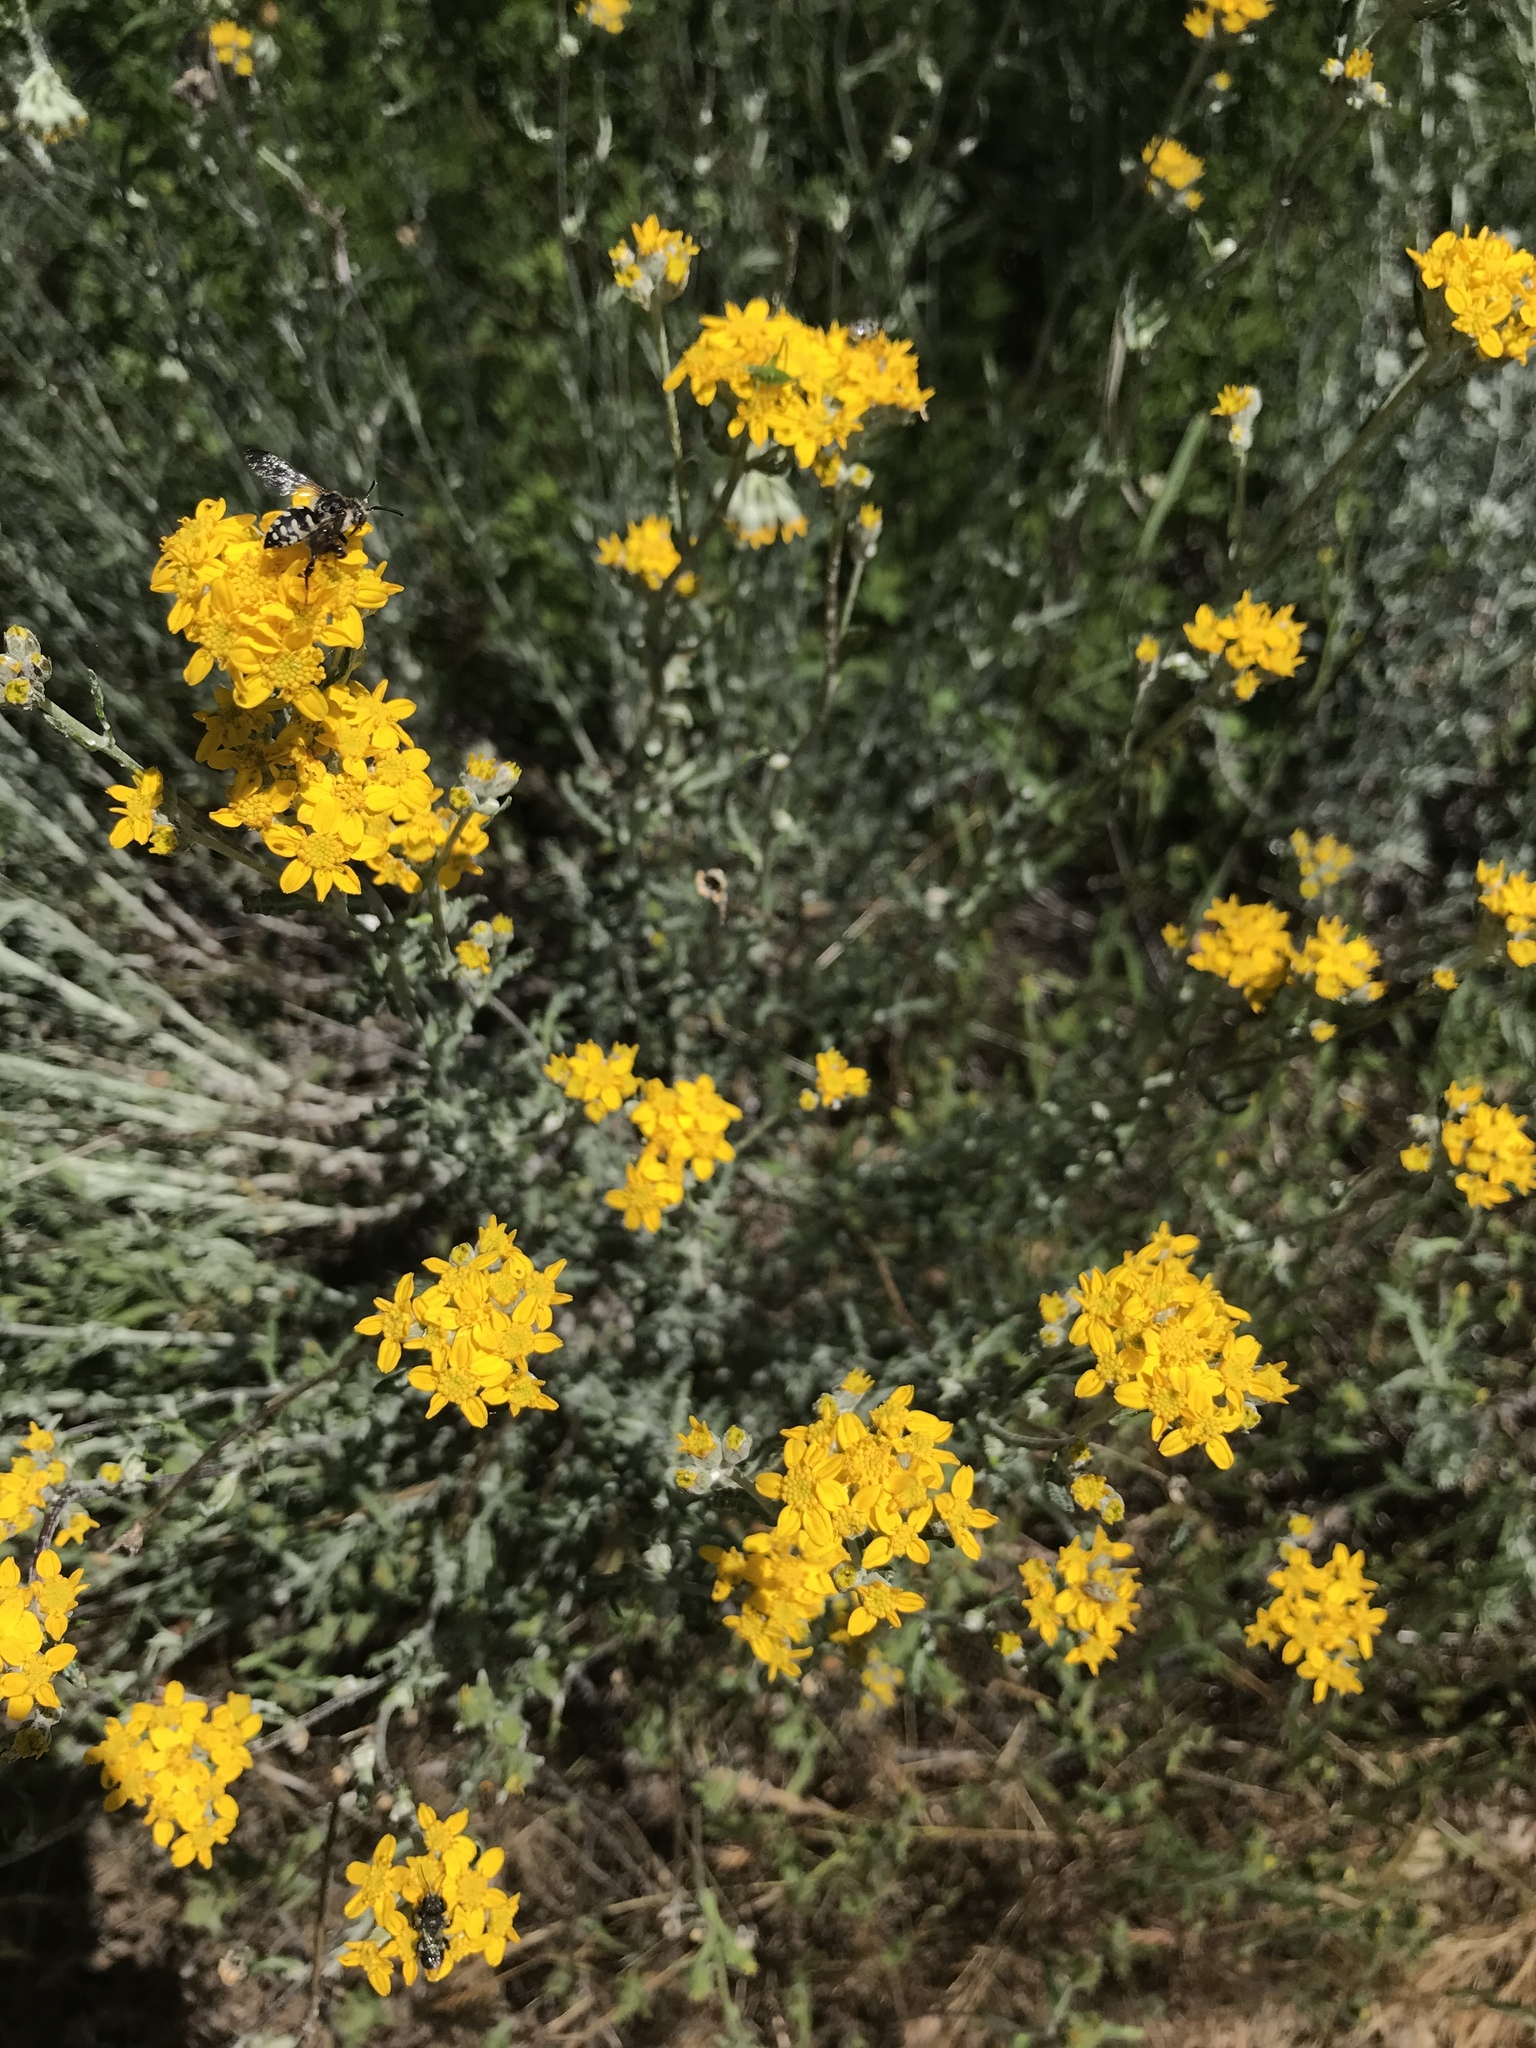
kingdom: Plantae
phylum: Tracheophyta
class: Magnoliopsida
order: Asterales
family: Asteraceae
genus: Eriophyllum
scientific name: Eriophyllum confertiflorum
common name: Golden-yarrow
